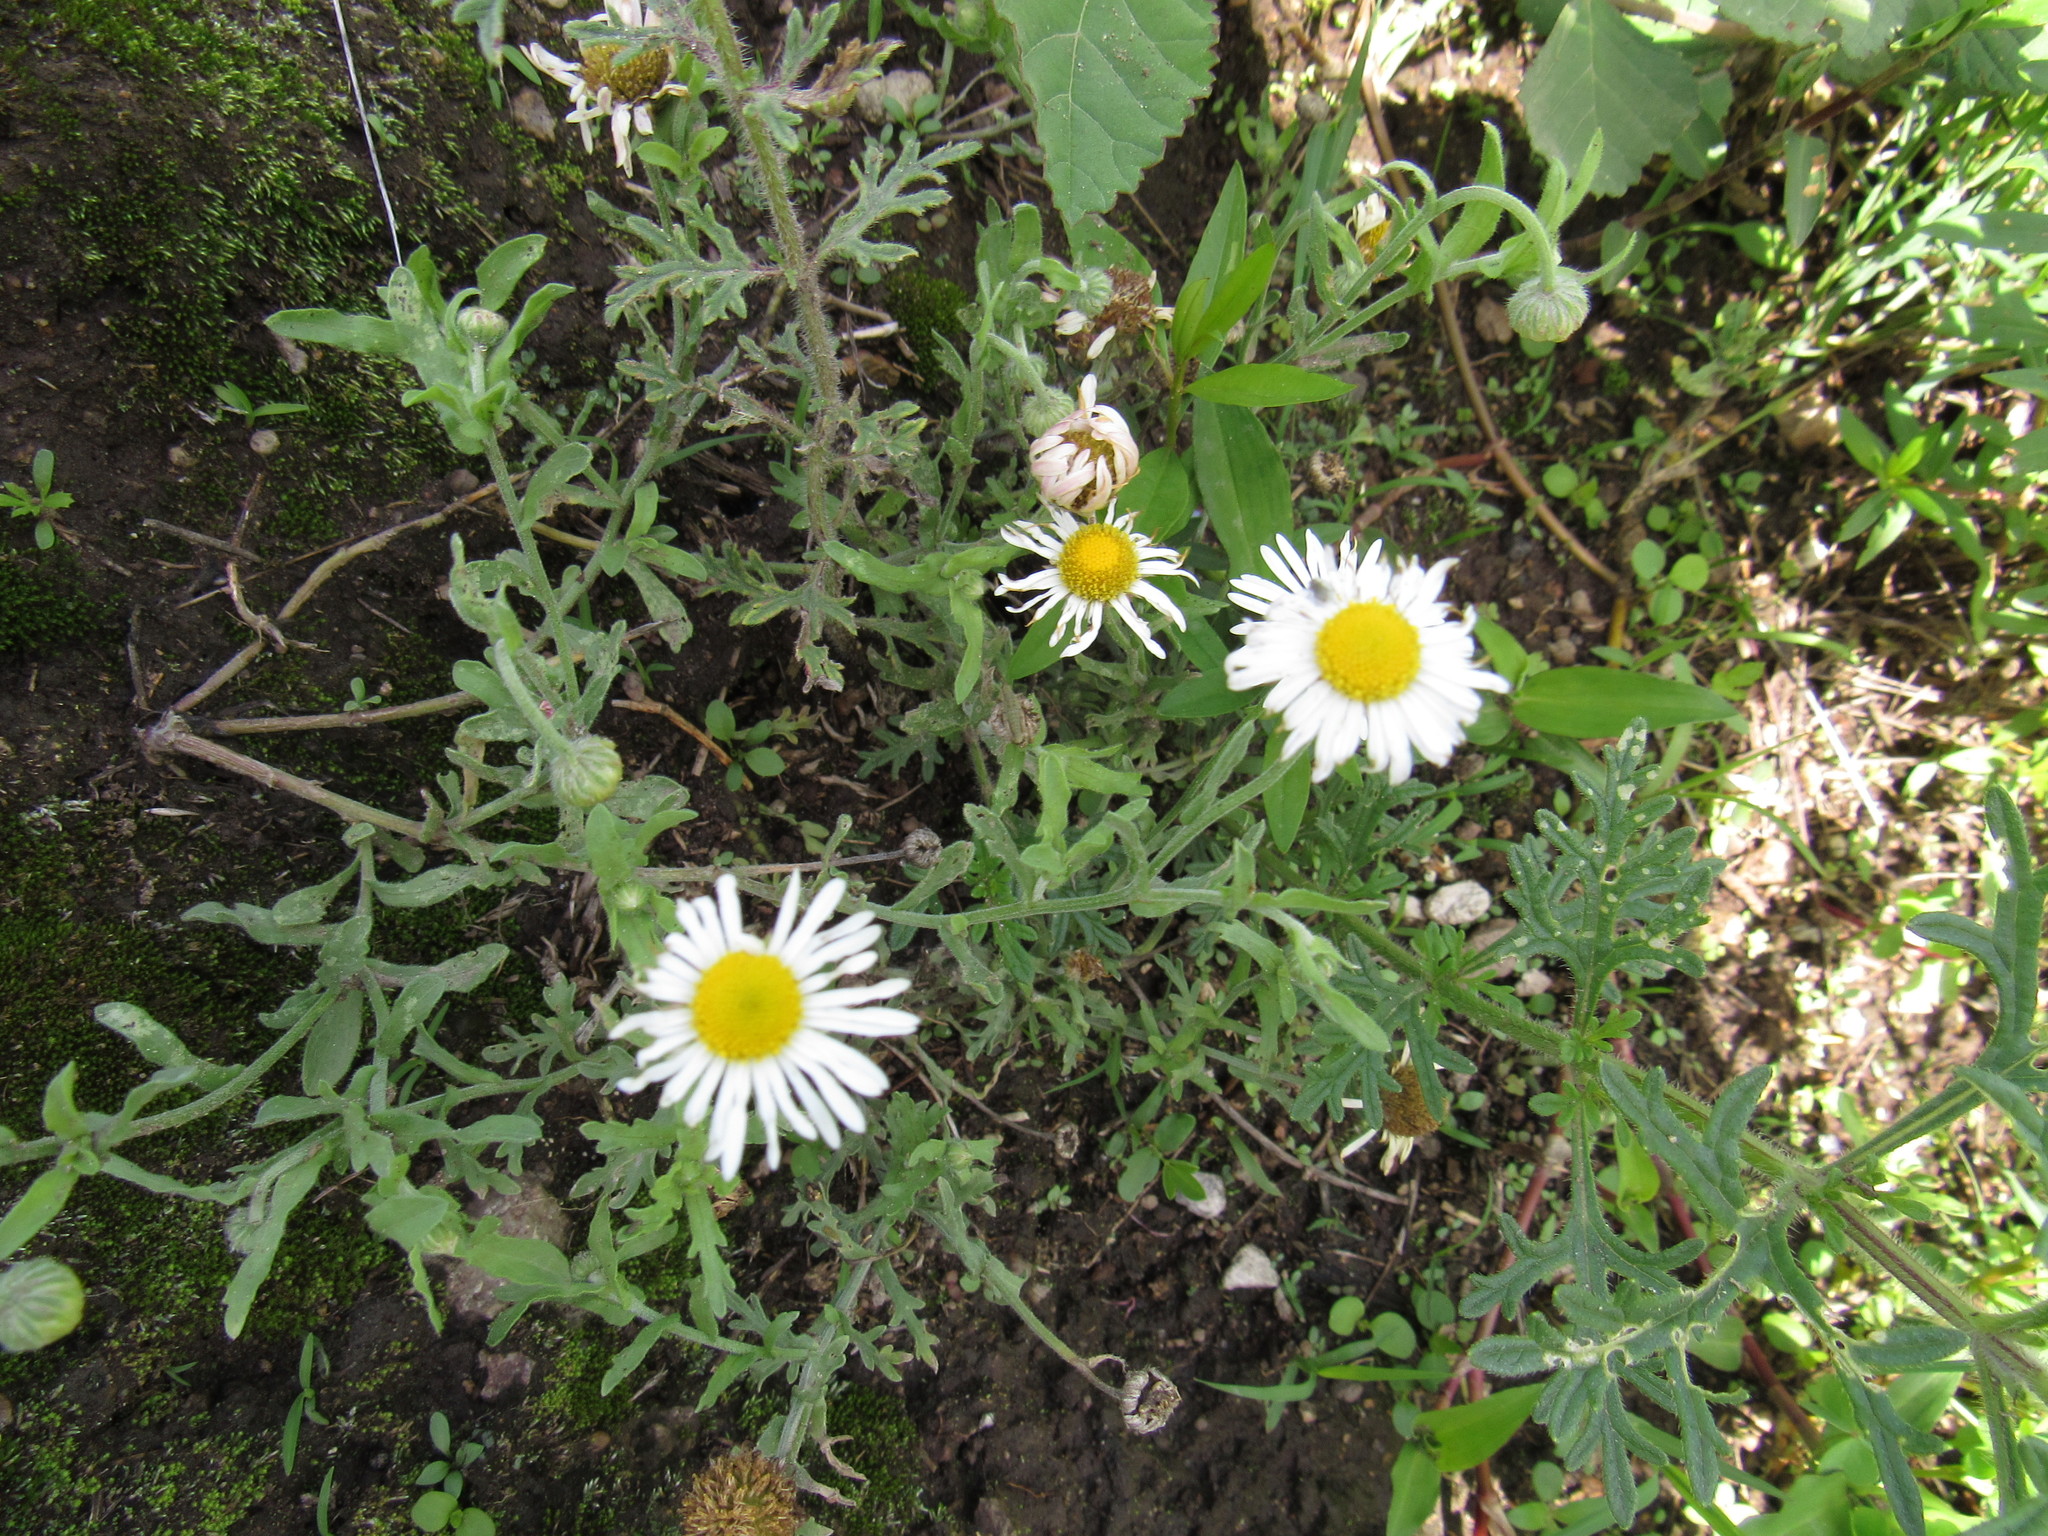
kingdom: Plantae
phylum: Tracheophyta
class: Magnoliopsida
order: Asterales
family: Asteraceae
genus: Aphanostephus
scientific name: Aphanostephus ramosissimus
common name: Plains lazy daisy
